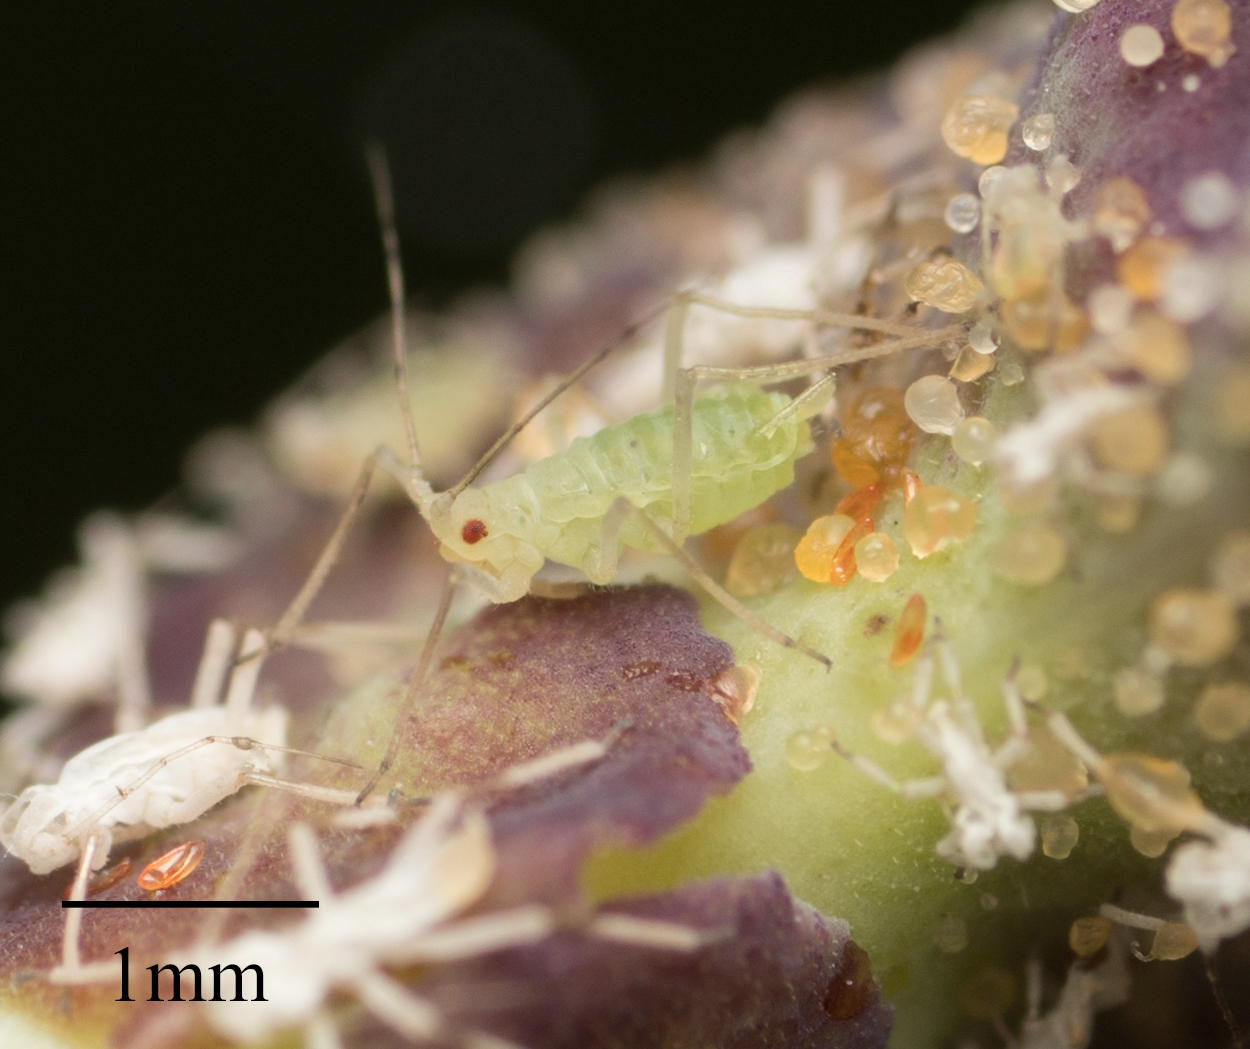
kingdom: Animalia
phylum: Arthropoda
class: Insecta
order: Hemiptera
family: Aphididae
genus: Acyrthosiphon
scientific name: Acyrthosiphon lactucae
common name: Aphid
